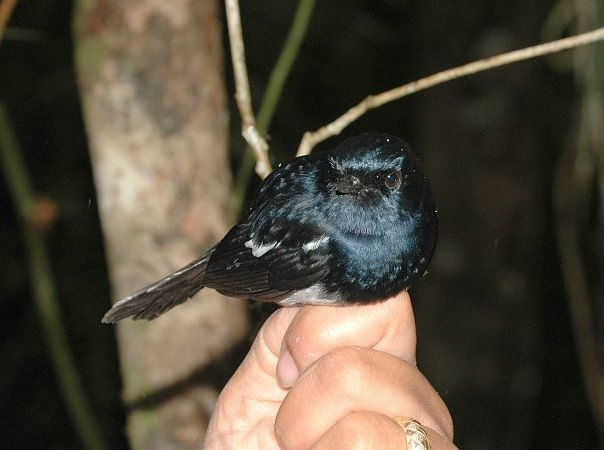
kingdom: Animalia
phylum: Chordata
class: Aves
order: Passeriformes
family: Muscicapidae
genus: Copsychus
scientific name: Copsychus albospecularis
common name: Madagascar magpie-robin
